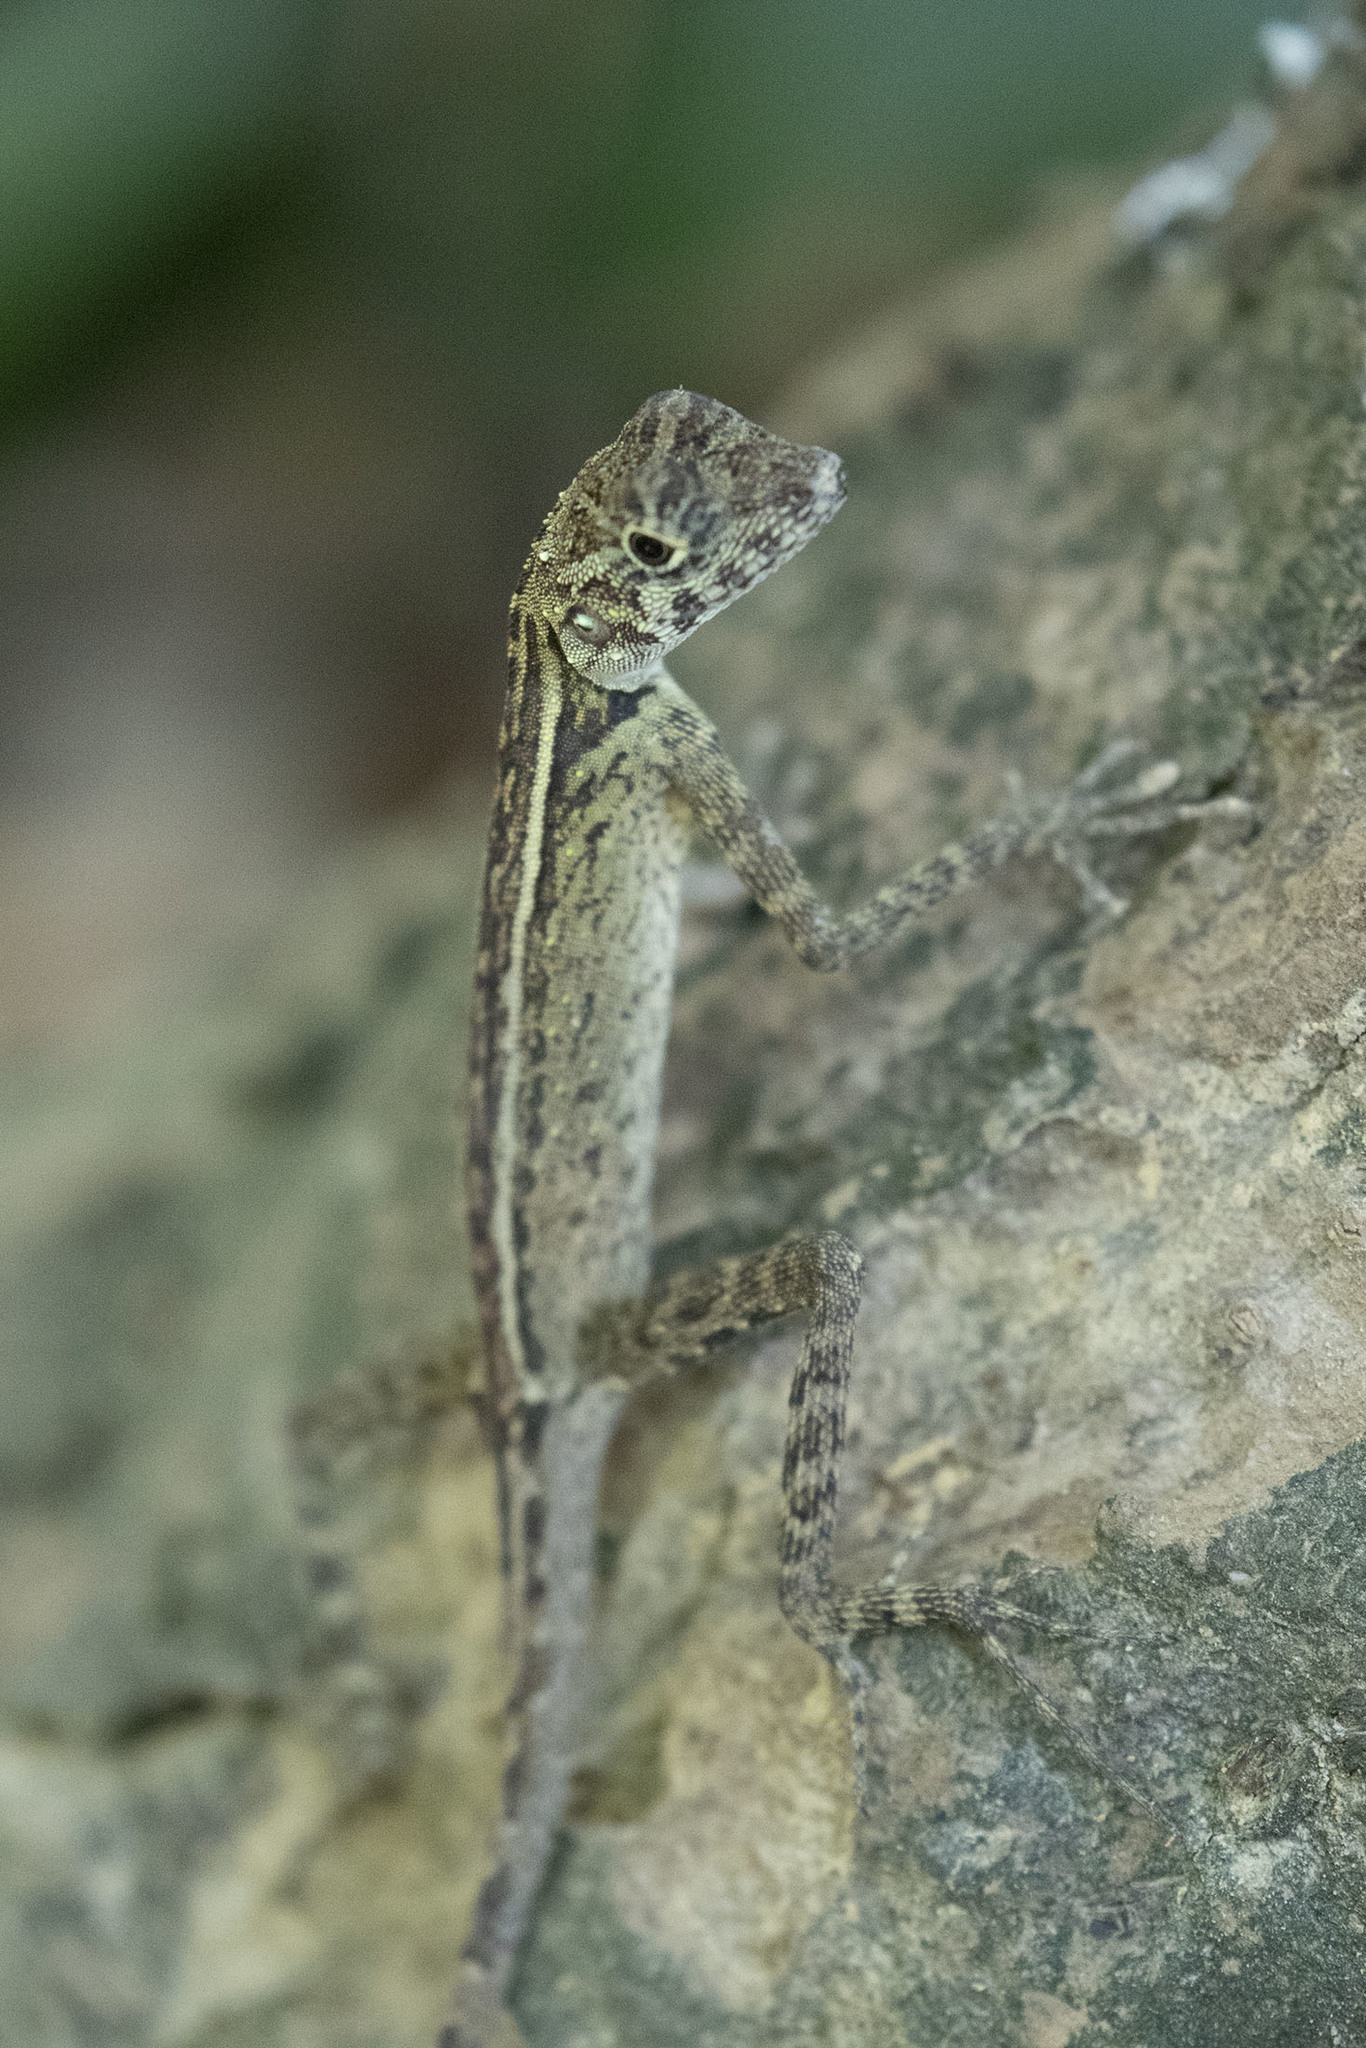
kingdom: Animalia
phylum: Chordata
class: Squamata
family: Agamidae
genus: Coryphophylax
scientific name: Coryphophylax subcristatus
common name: Short-crested bay island forest lizard
